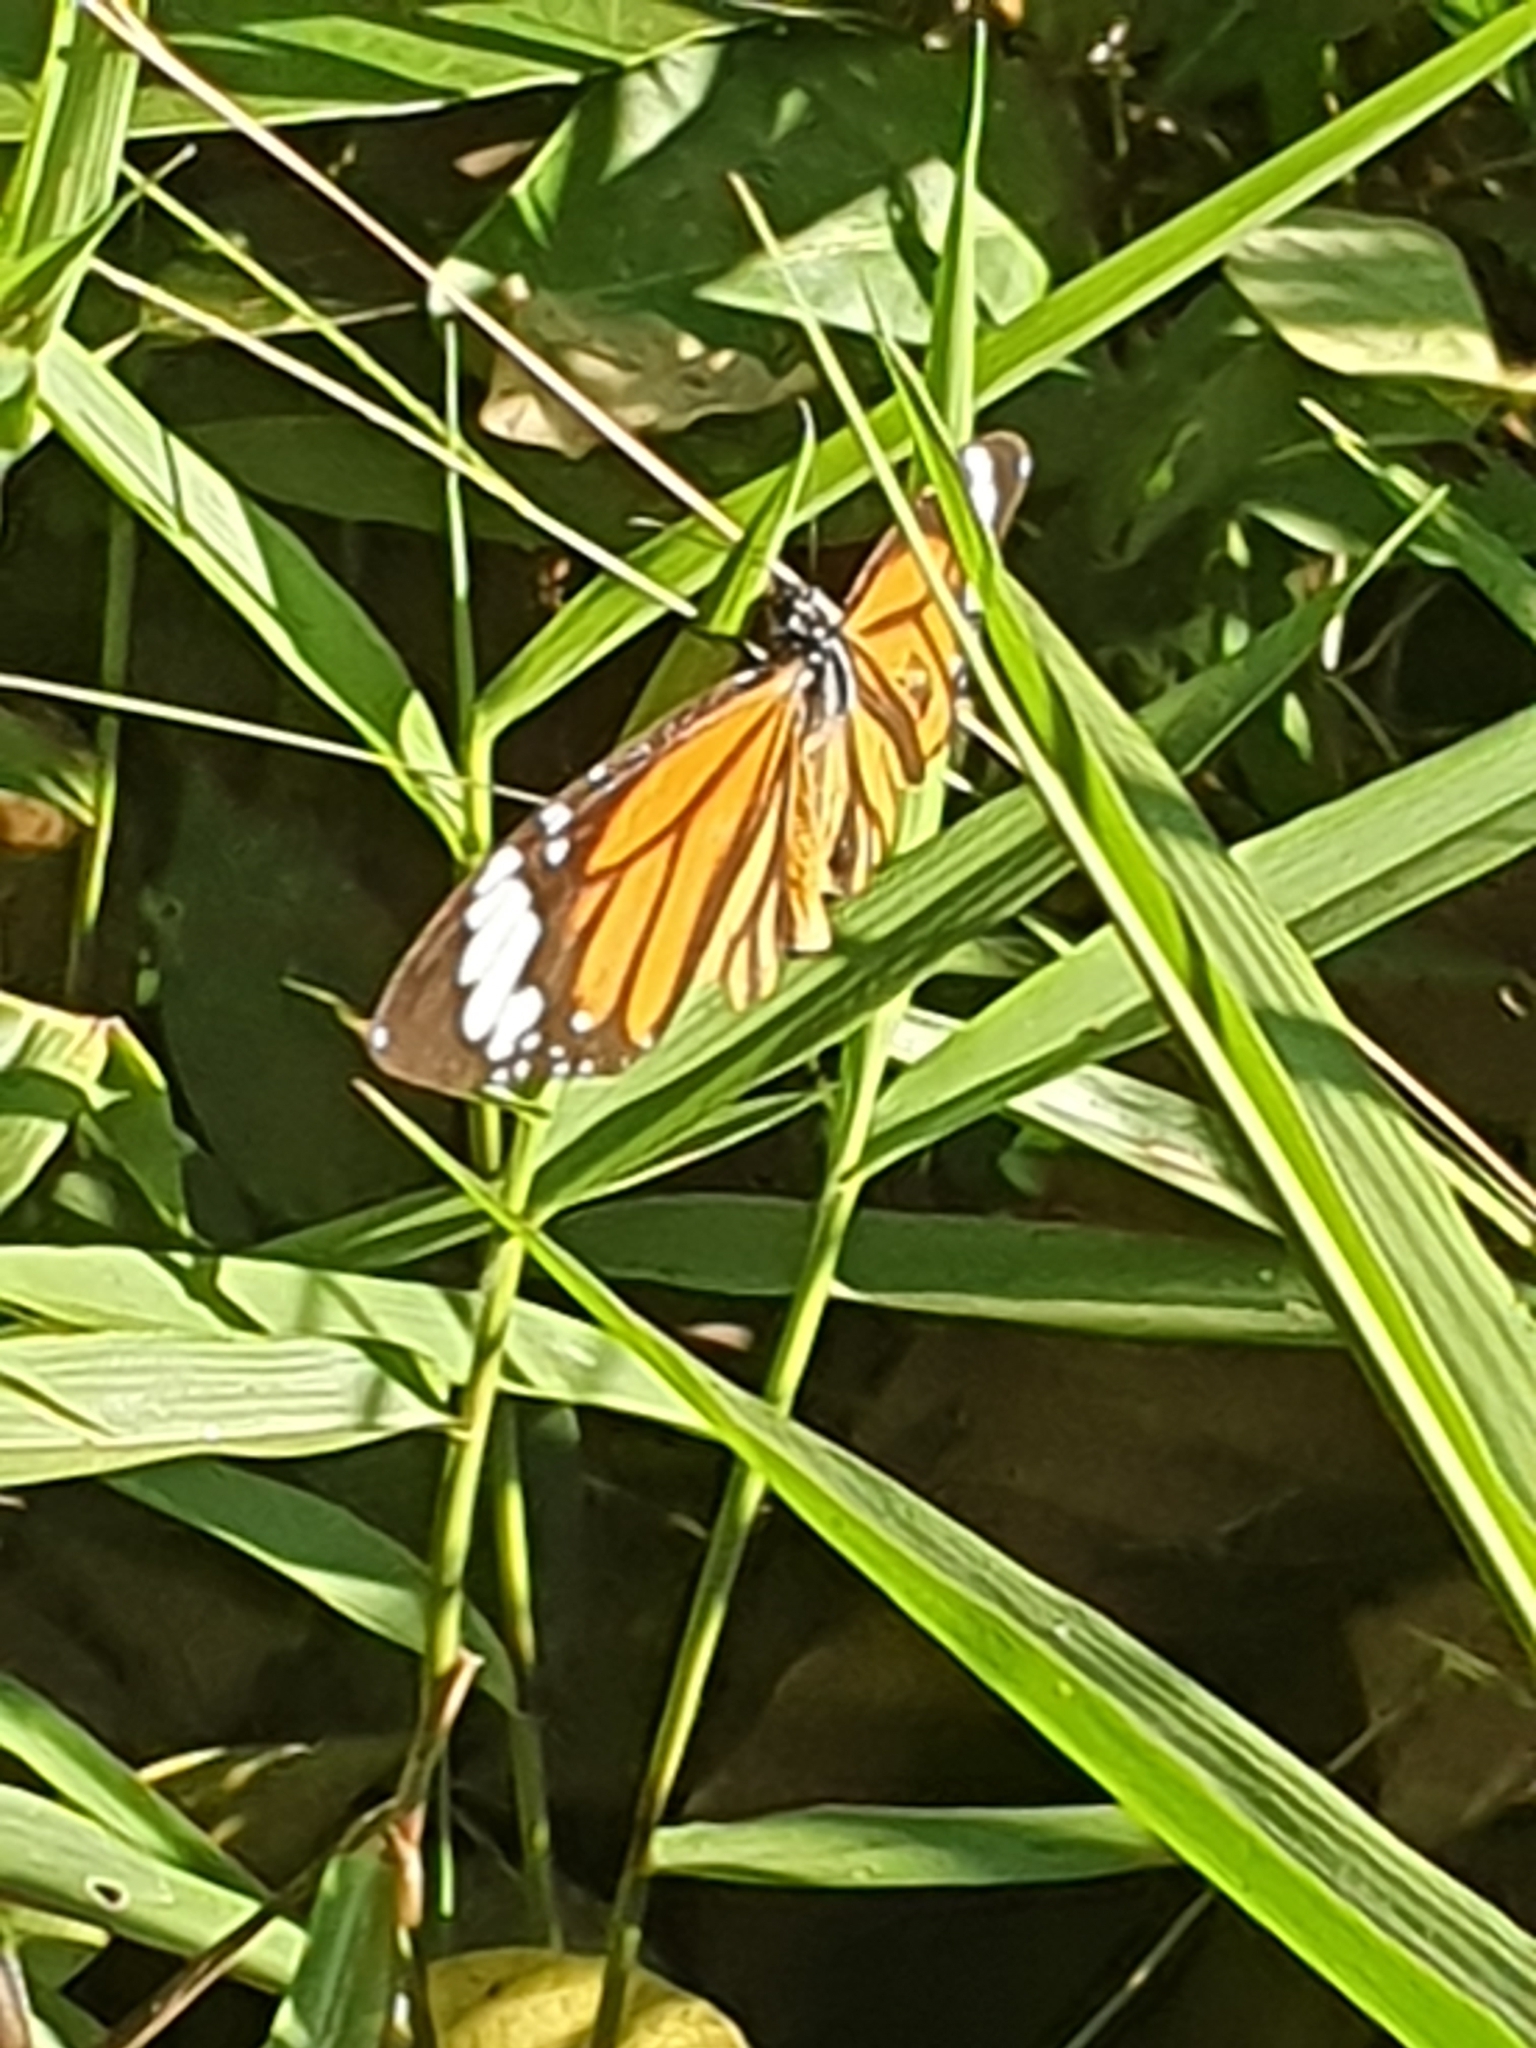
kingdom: Animalia
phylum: Arthropoda
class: Insecta
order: Lepidoptera
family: Nymphalidae
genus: Danaus
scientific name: Danaus genutia
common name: Common tiger butterfly
